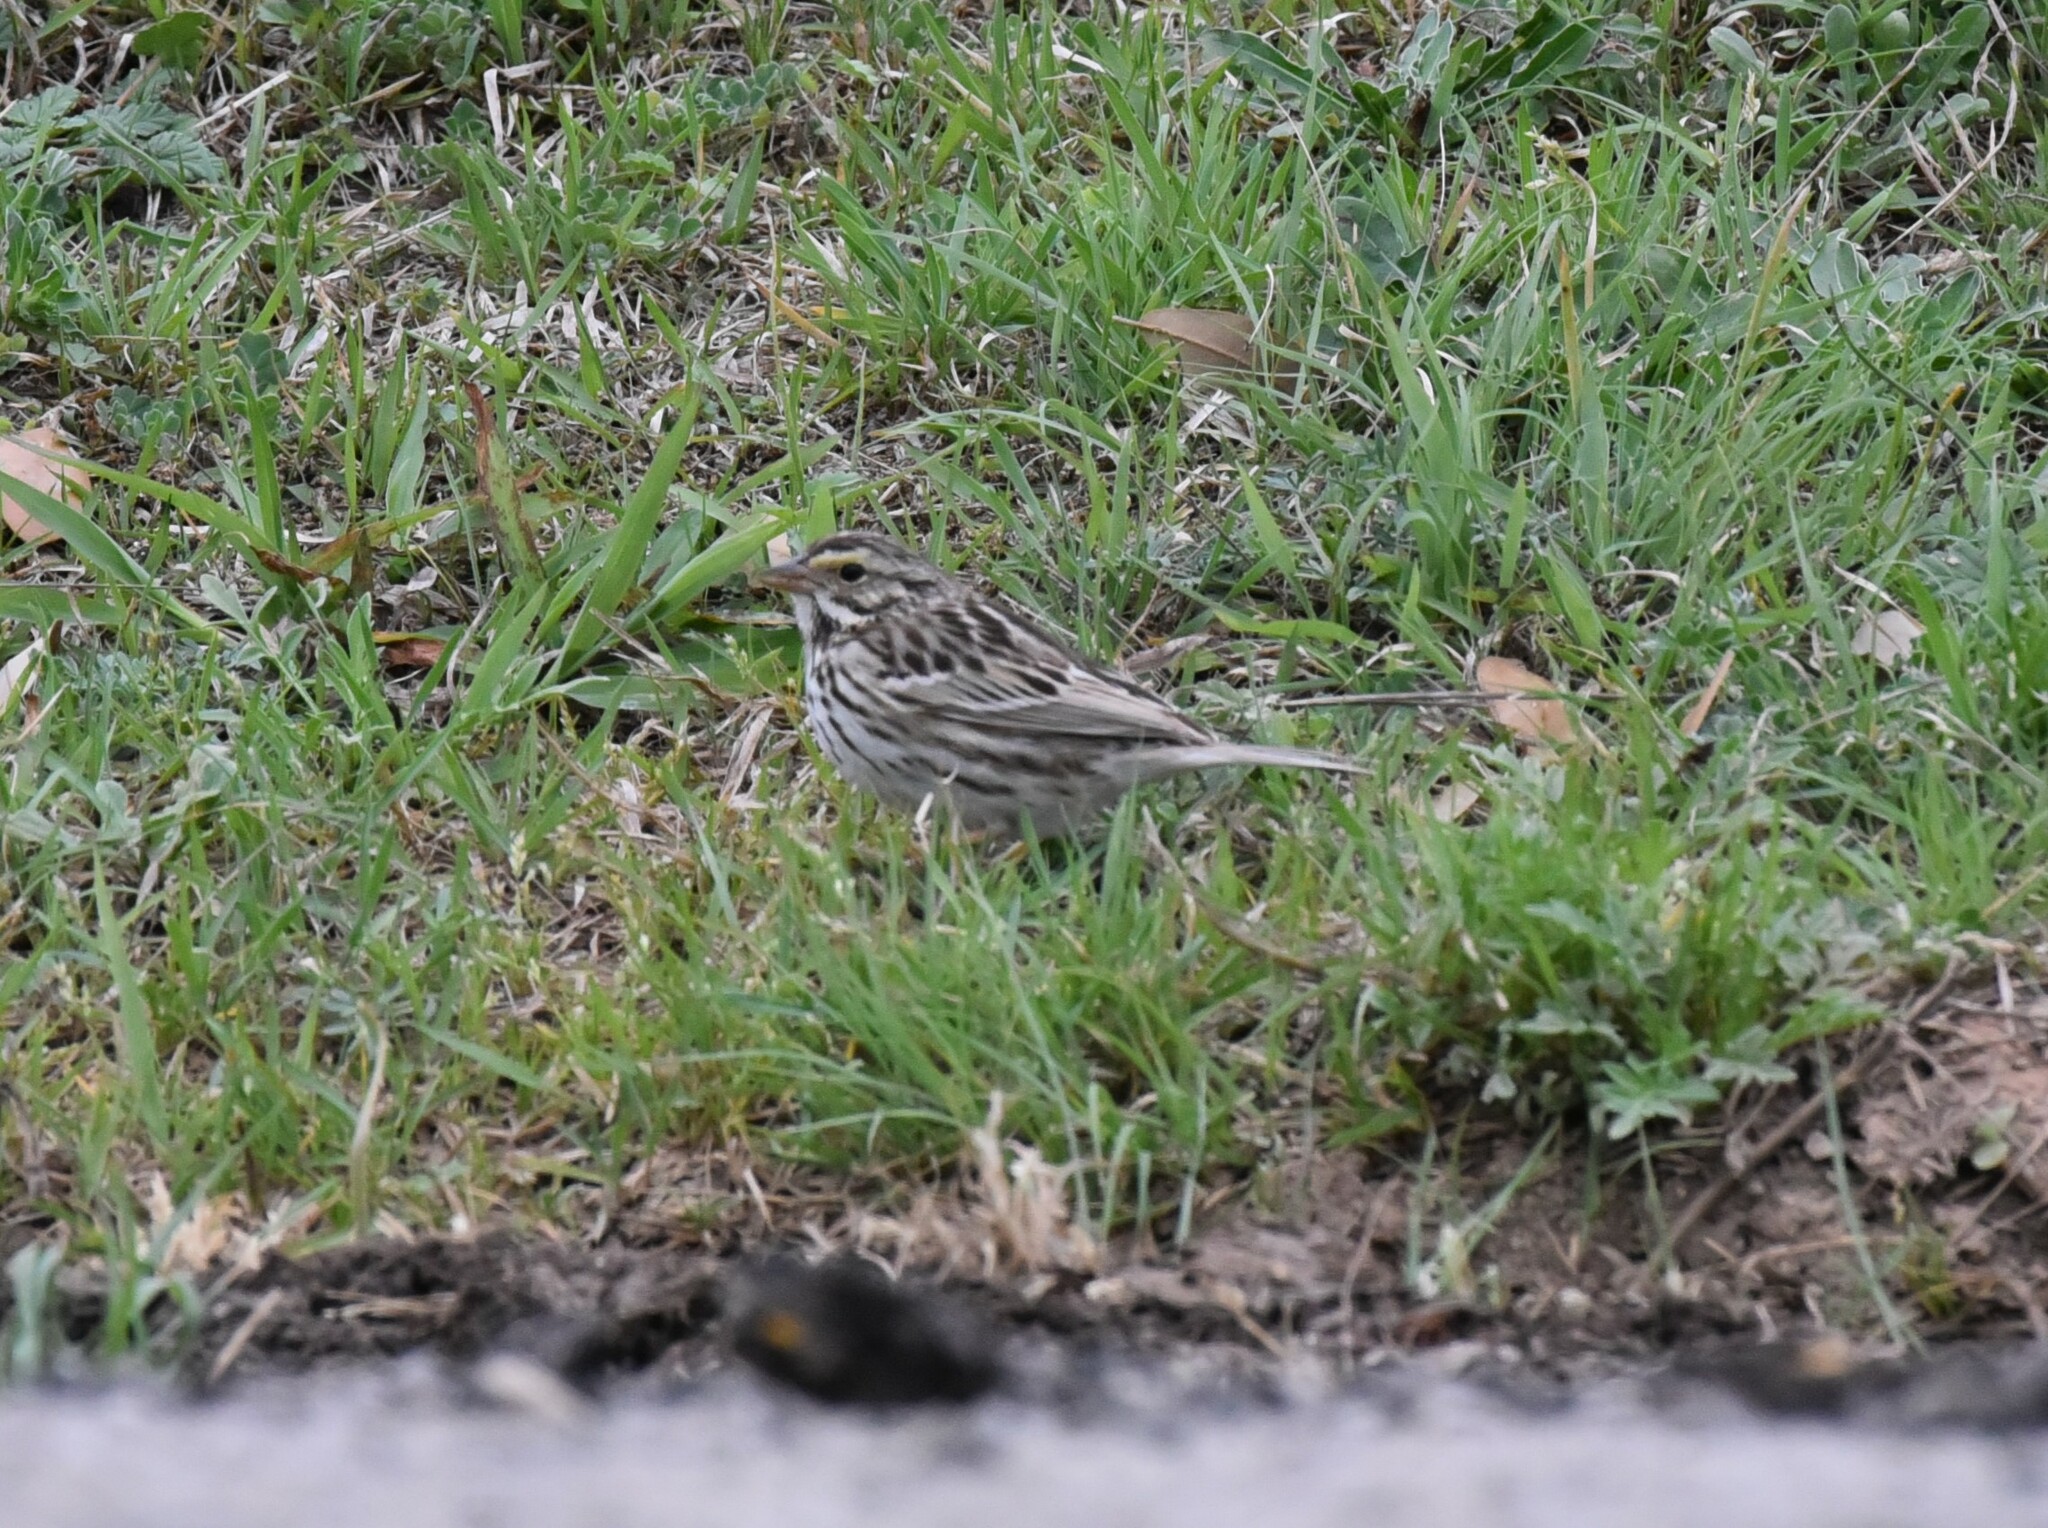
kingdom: Animalia
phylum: Chordata
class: Aves
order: Passeriformes
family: Passerellidae
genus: Passerculus
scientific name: Passerculus sandwichensis
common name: Savannah sparrow
